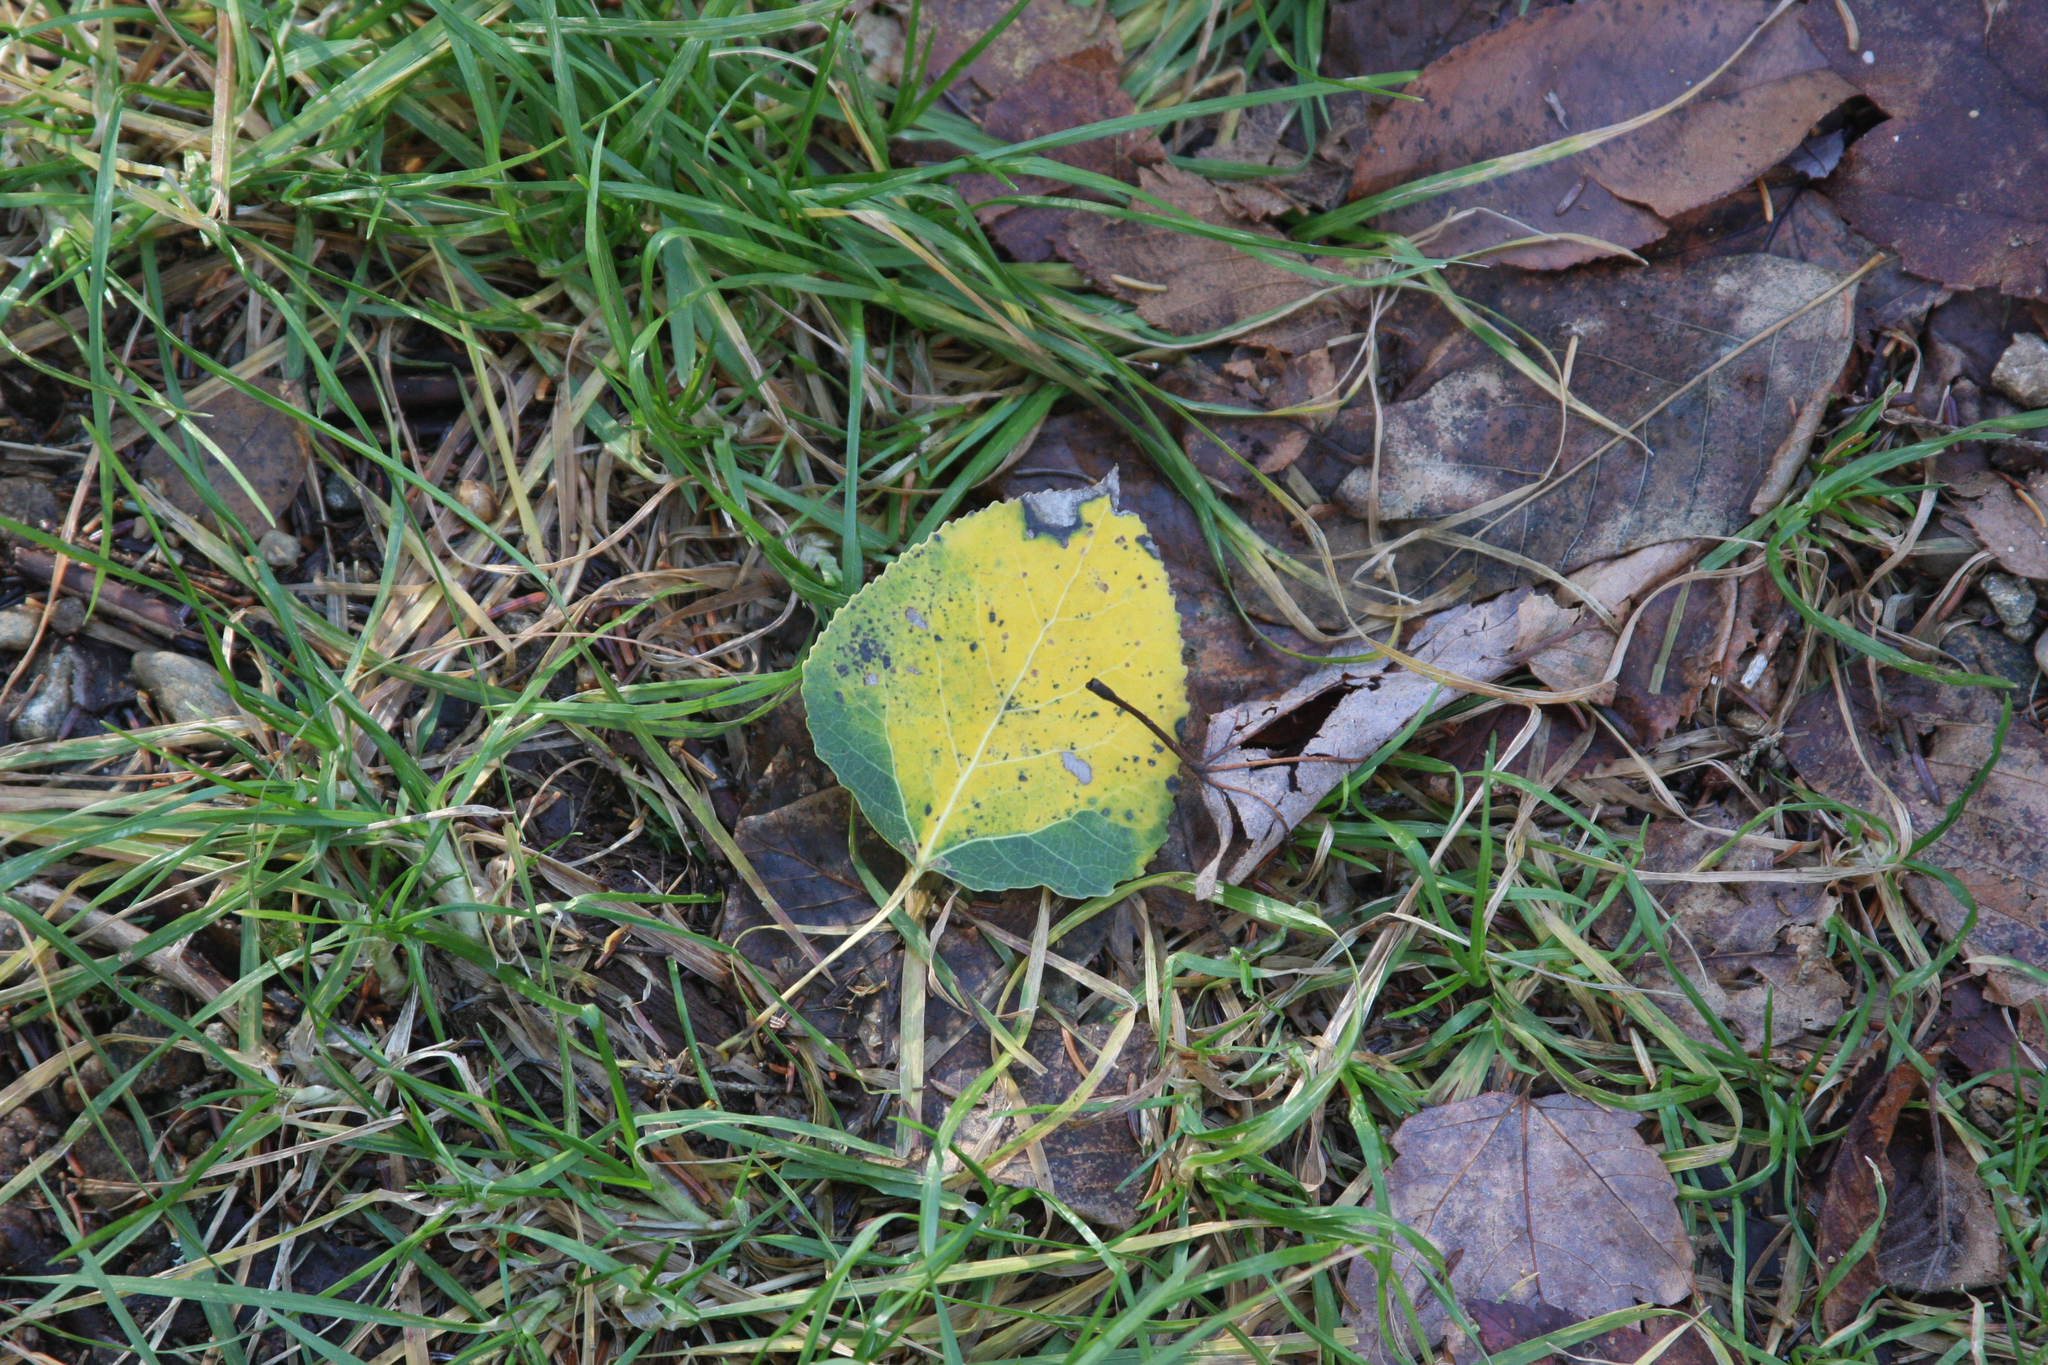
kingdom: Plantae
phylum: Tracheophyta
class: Magnoliopsida
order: Malpighiales
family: Salicaceae
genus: Populus
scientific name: Populus tremuloides
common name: Quaking aspen
